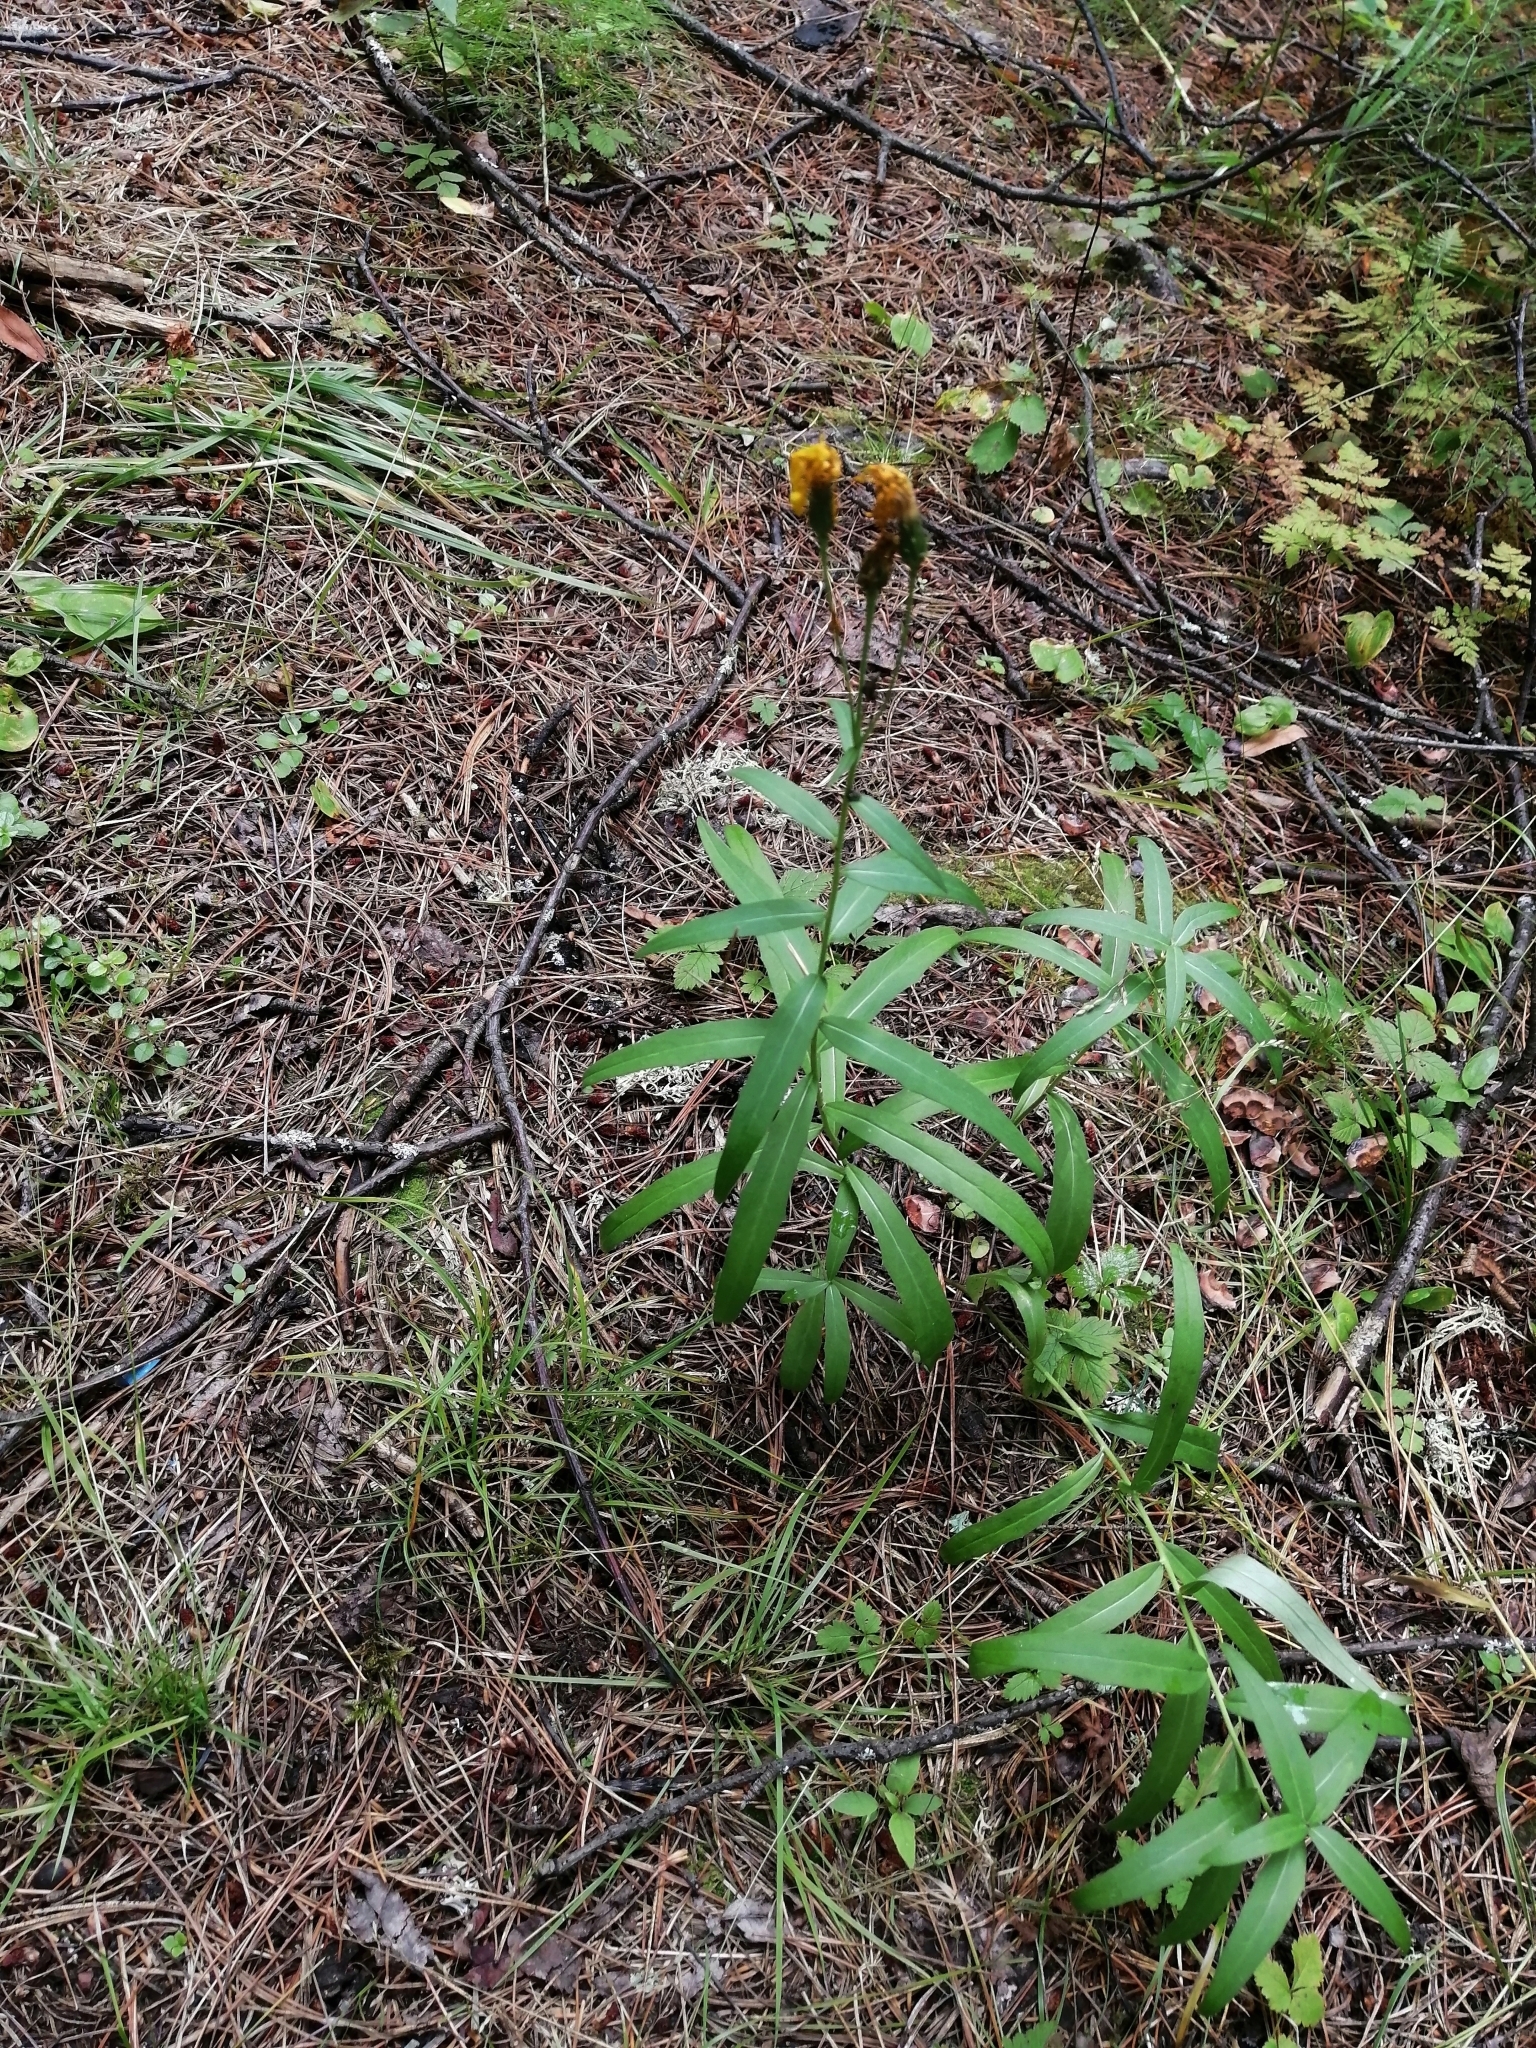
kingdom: Plantae
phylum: Tracheophyta
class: Magnoliopsida
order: Asterales
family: Asteraceae
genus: Hieracium
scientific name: Hieracium umbellatum
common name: Northern hawkweed
